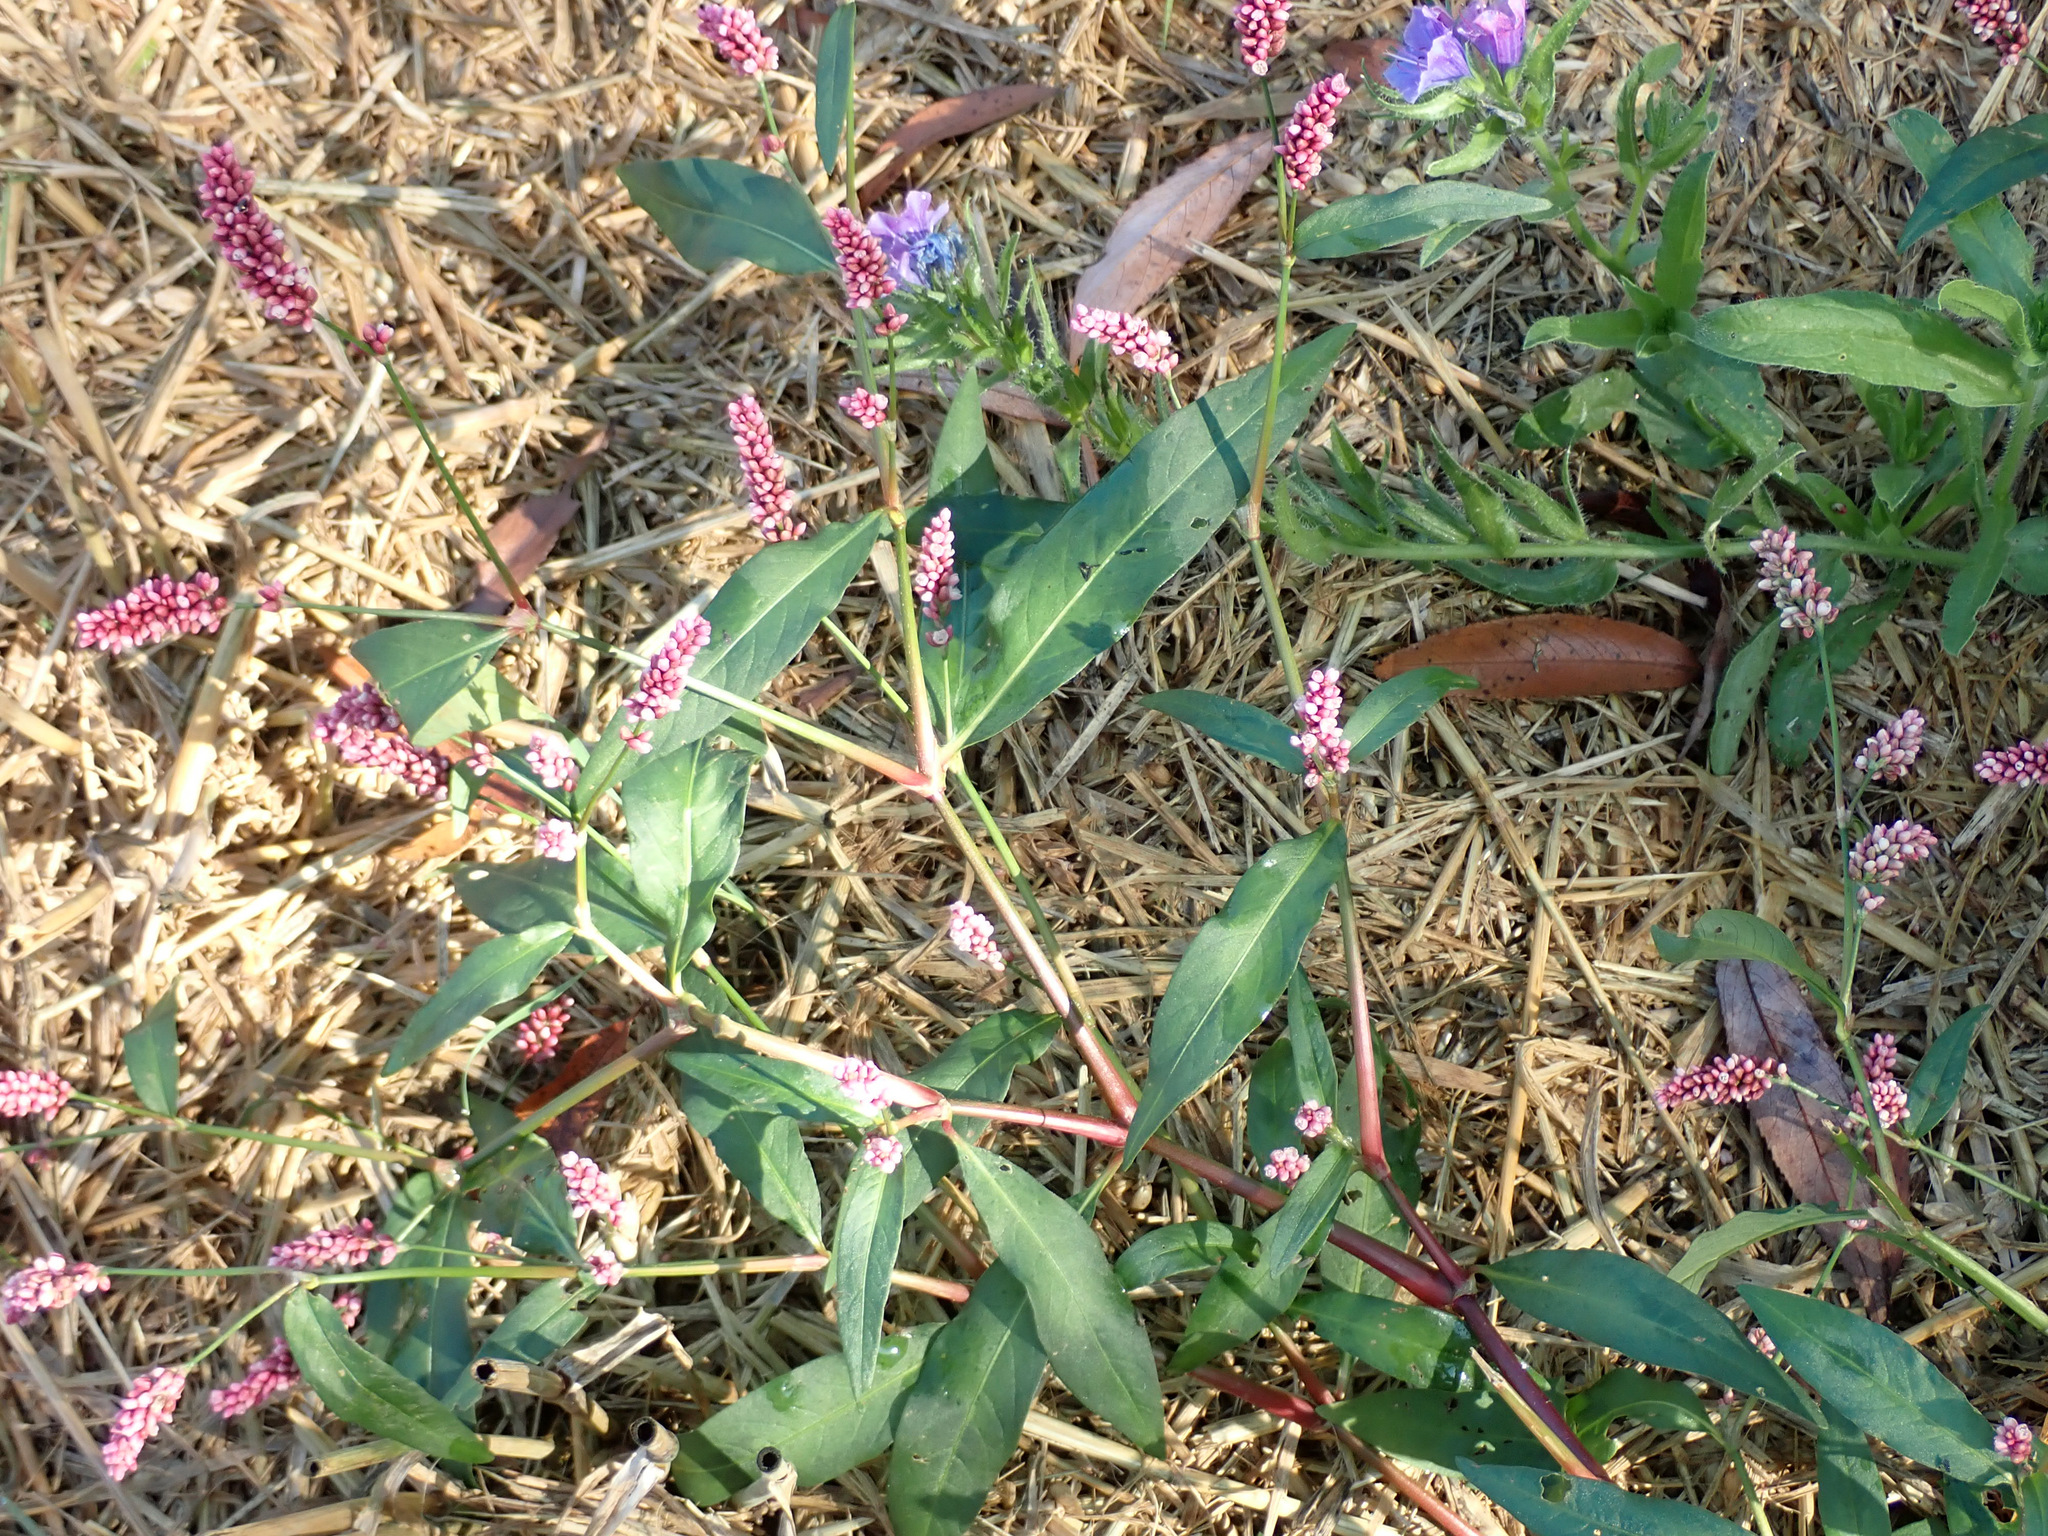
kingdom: Plantae
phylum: Tracheophyta
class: Magnoliopsida
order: Caryophyllales
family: Polygonaceae
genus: Persicaria
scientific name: Persicaria maculosa
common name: Redshank
